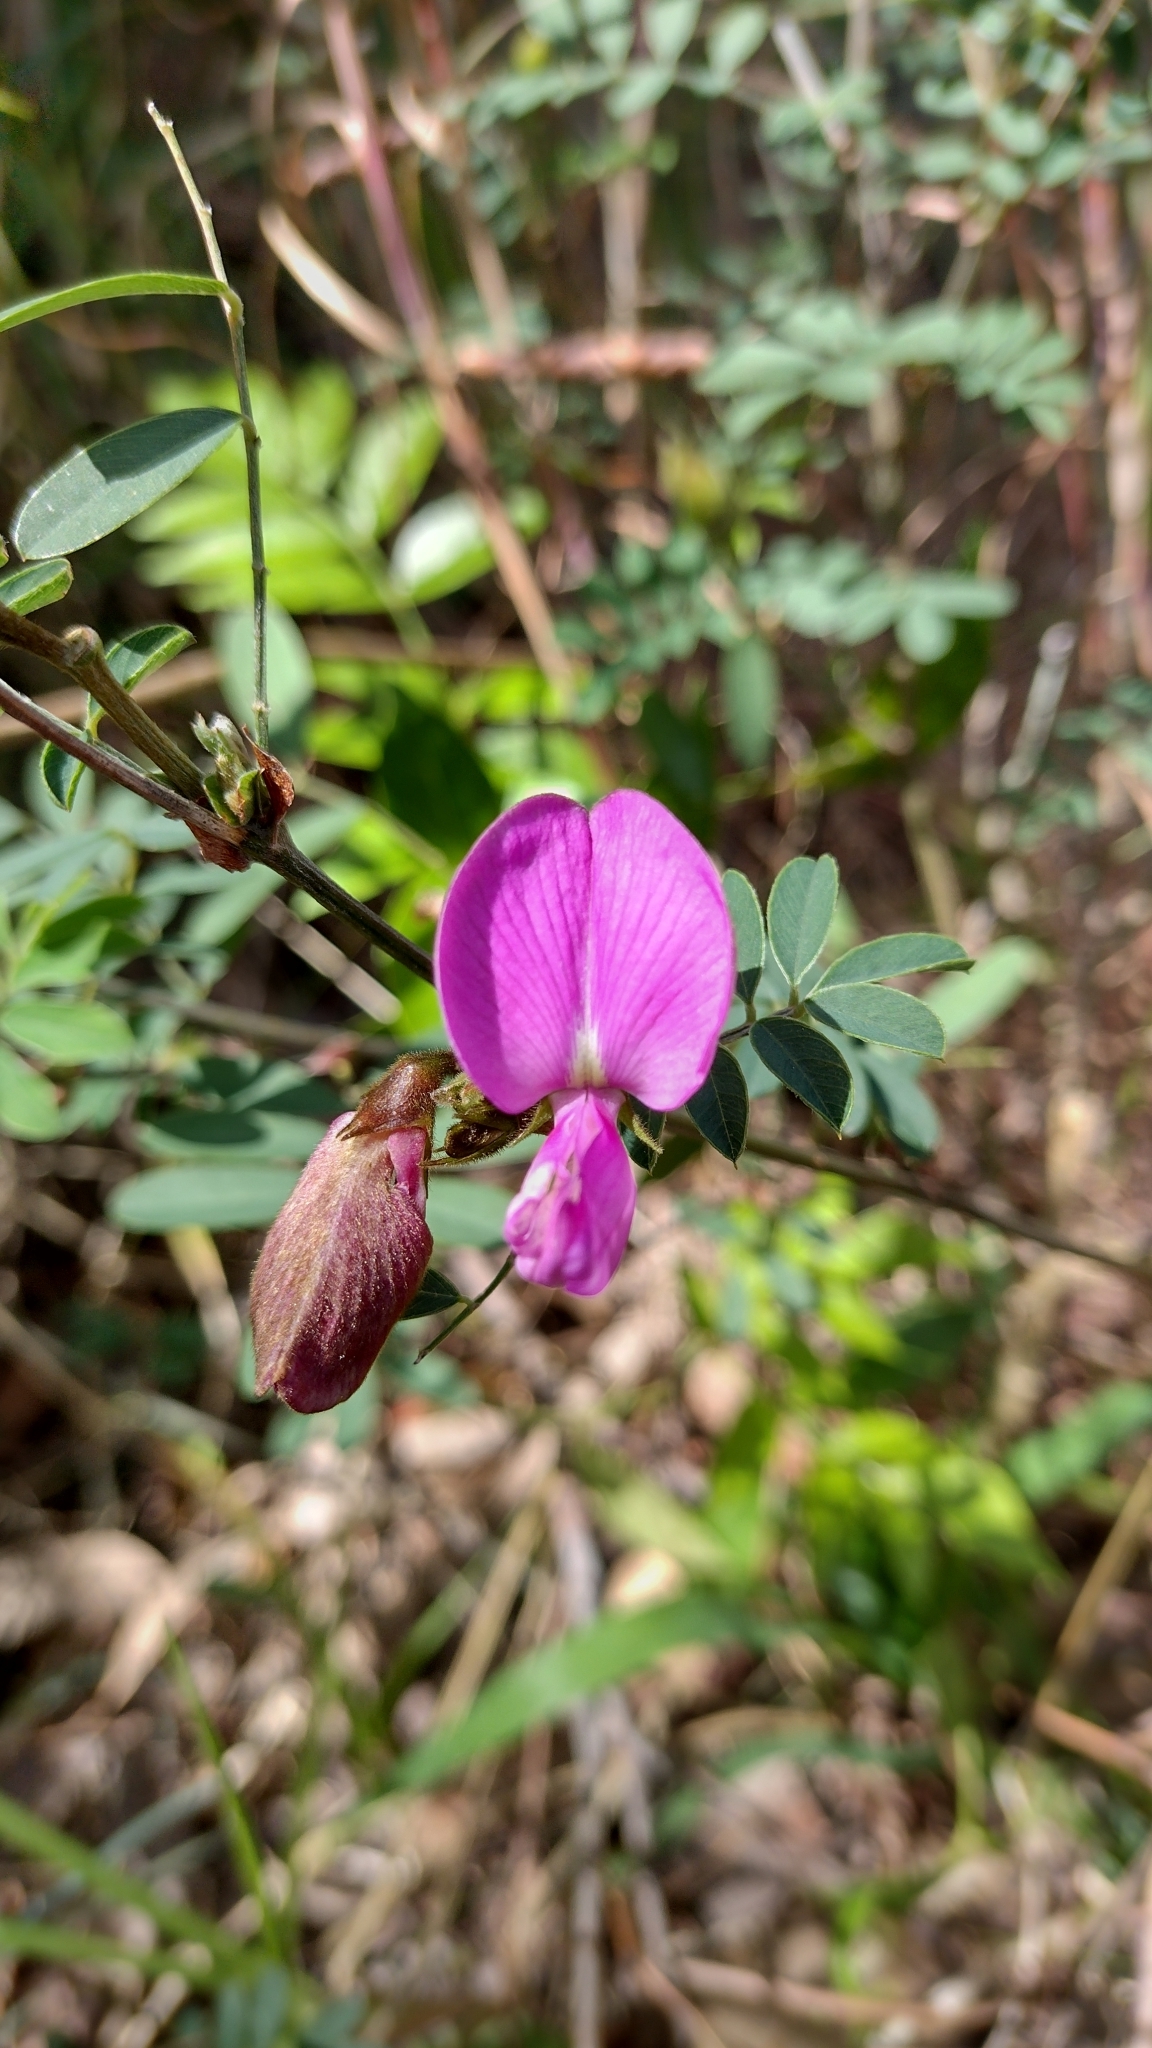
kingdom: Plantae
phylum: Tracheophyta
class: Magnoliopsida
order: Fabales
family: Fabaceae
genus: Tephrosia
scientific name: Tephrosia grandiflora
